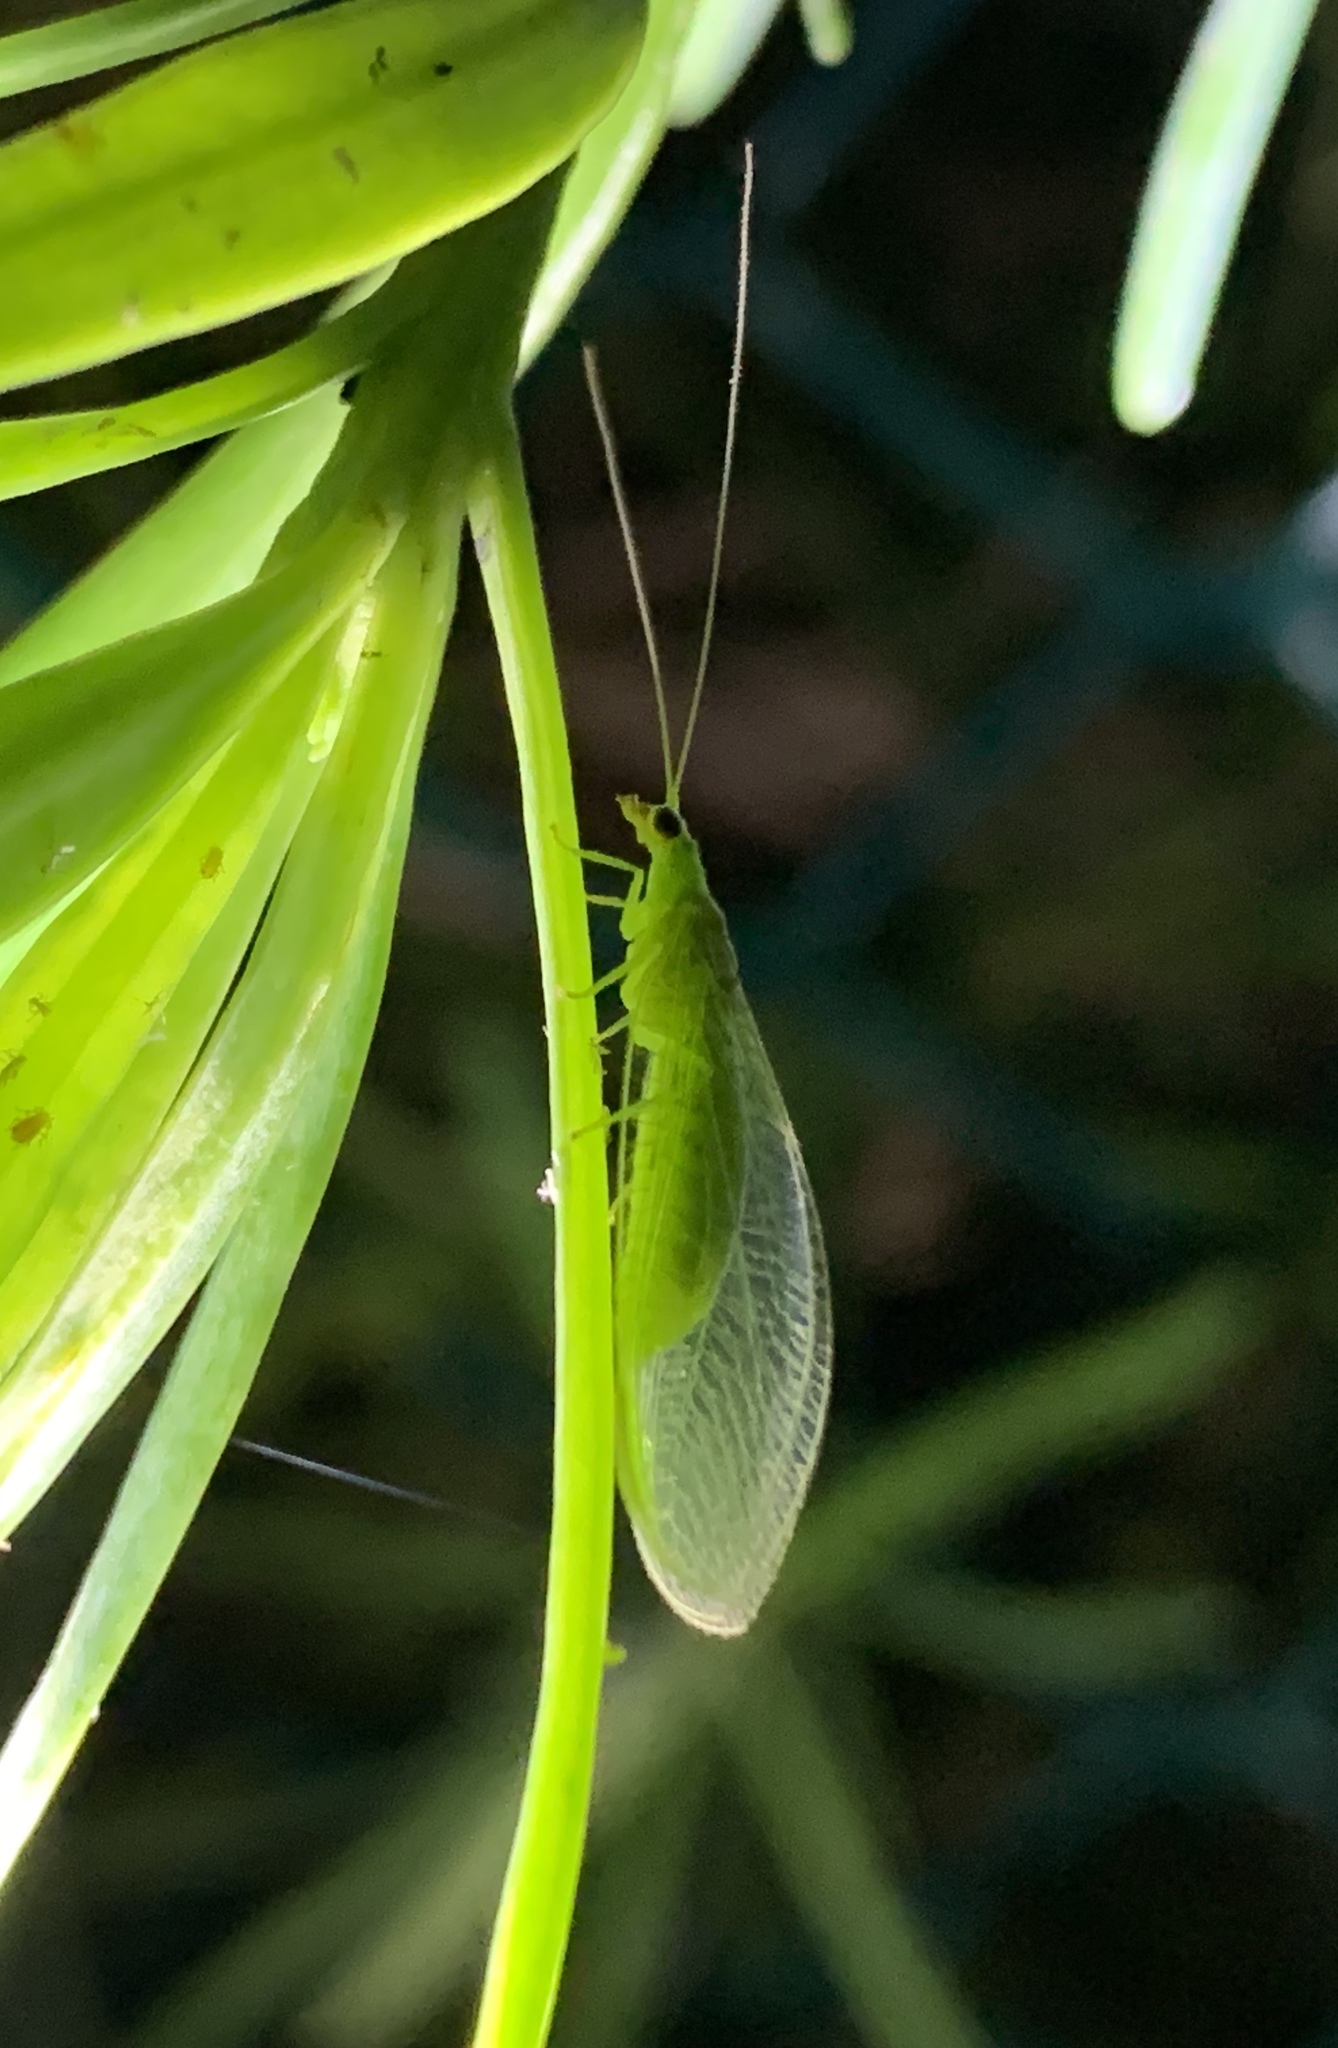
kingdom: Animalia
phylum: Arthropoda
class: Insecta
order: Neuroptera
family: Chrysopidae
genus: Chrysopodes
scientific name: Chrysopodes collaris
